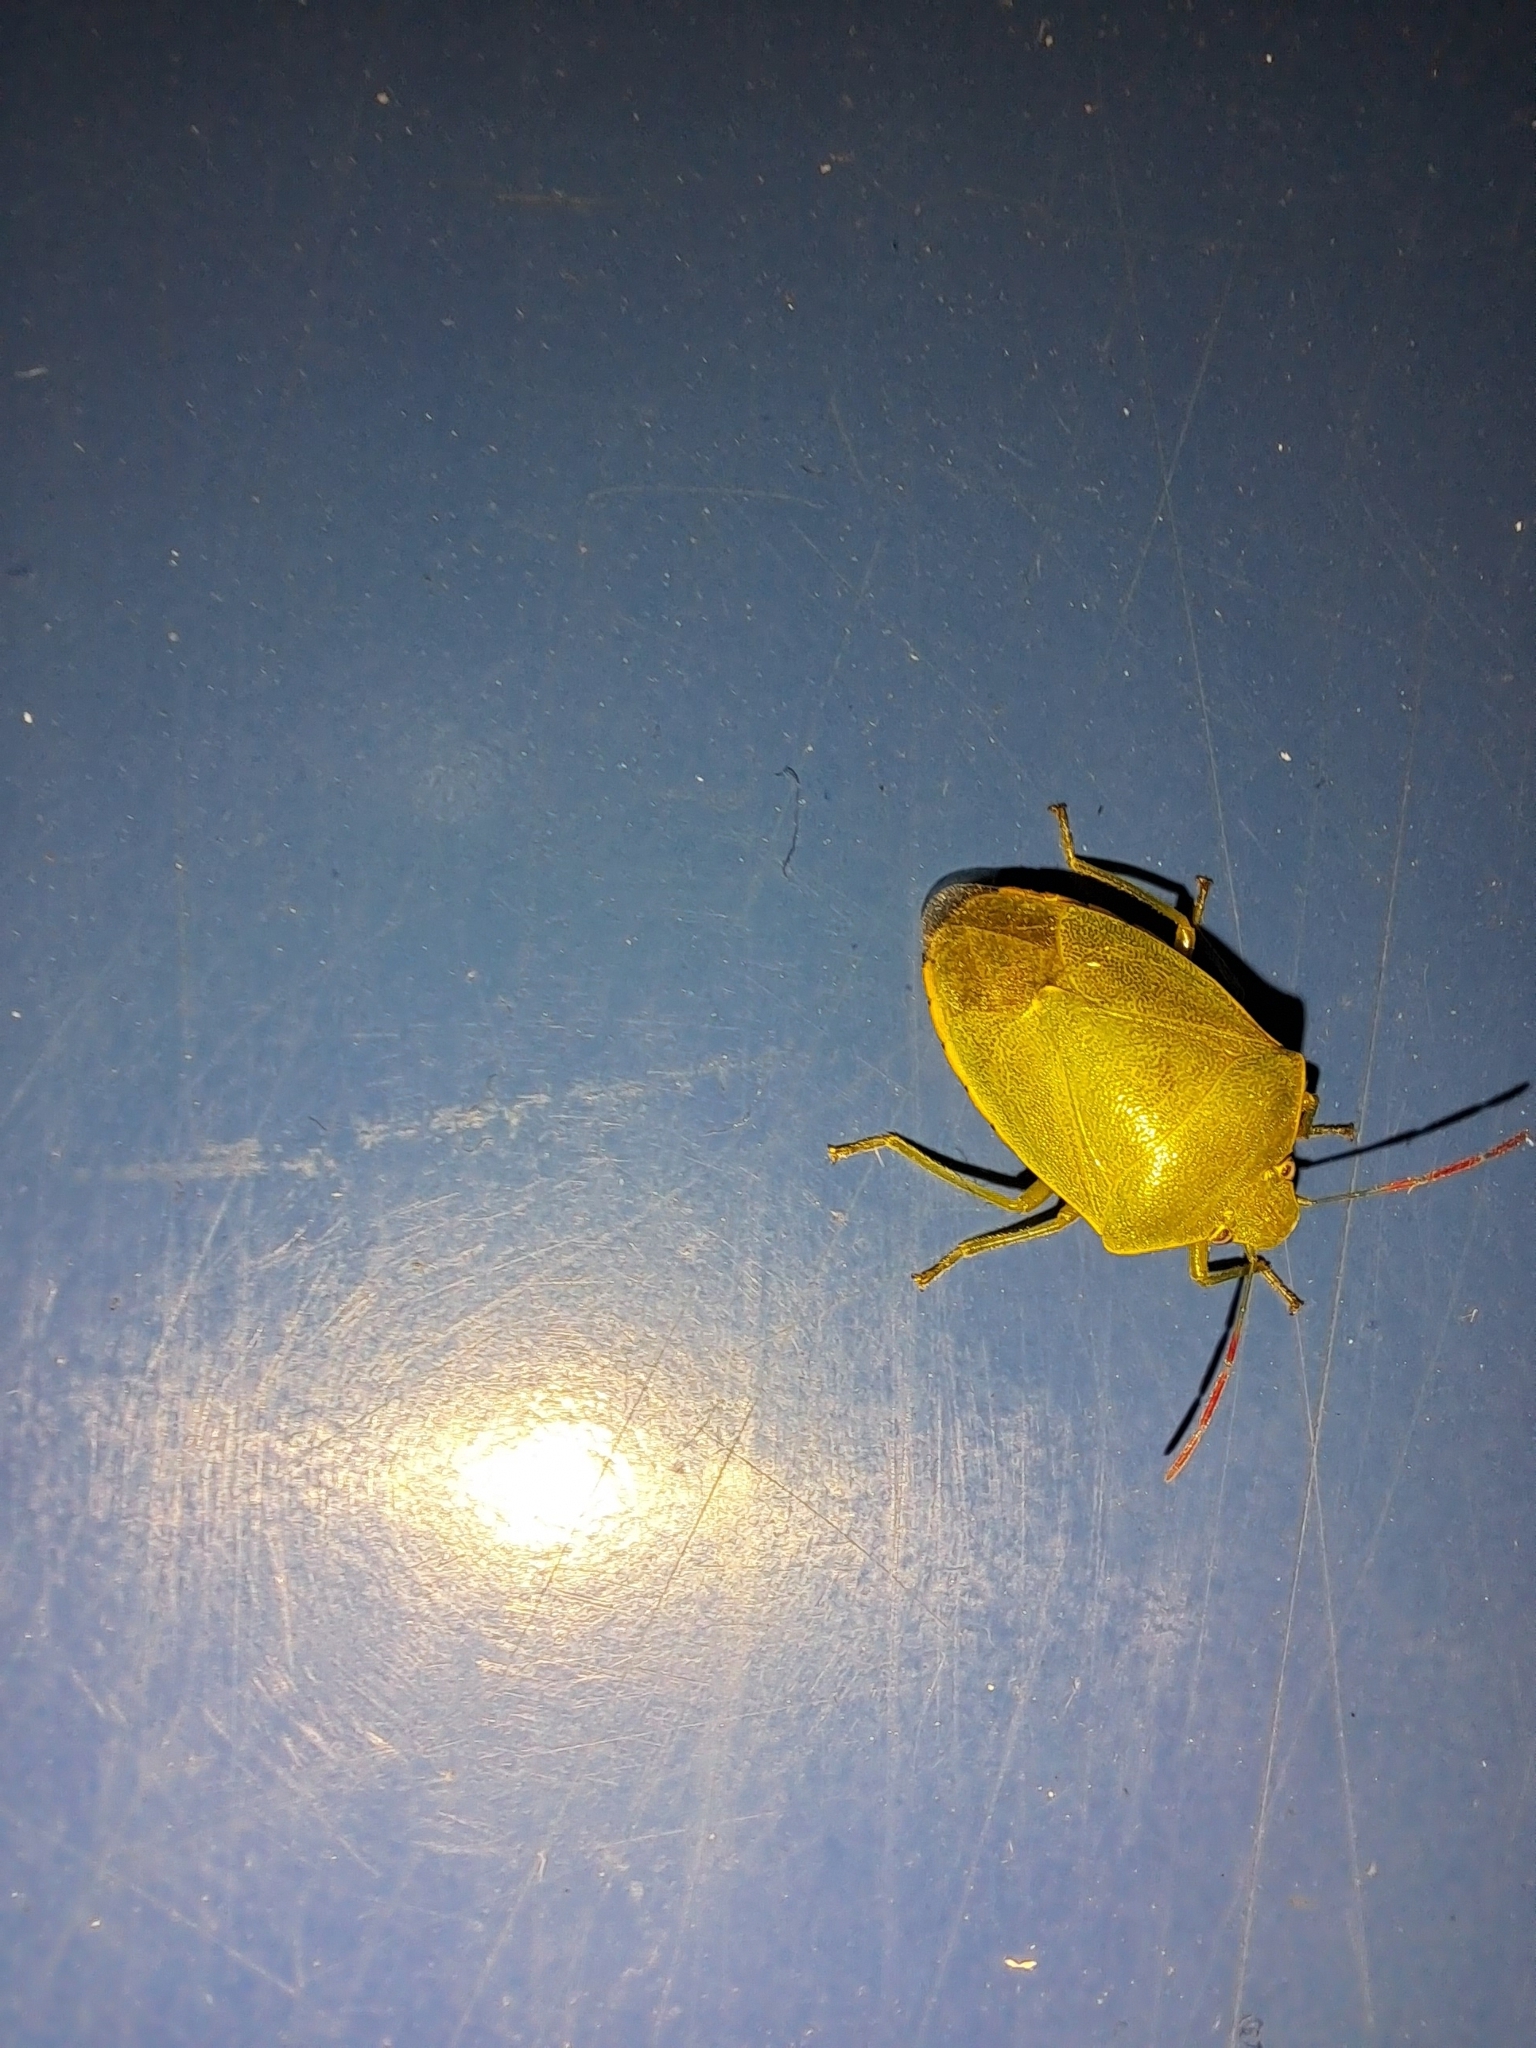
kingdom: Animalia
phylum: Arthropoda
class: Insecta
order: Hemiptera
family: Pentatomidae
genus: Acrosternum
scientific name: Acrosternum heegeri
